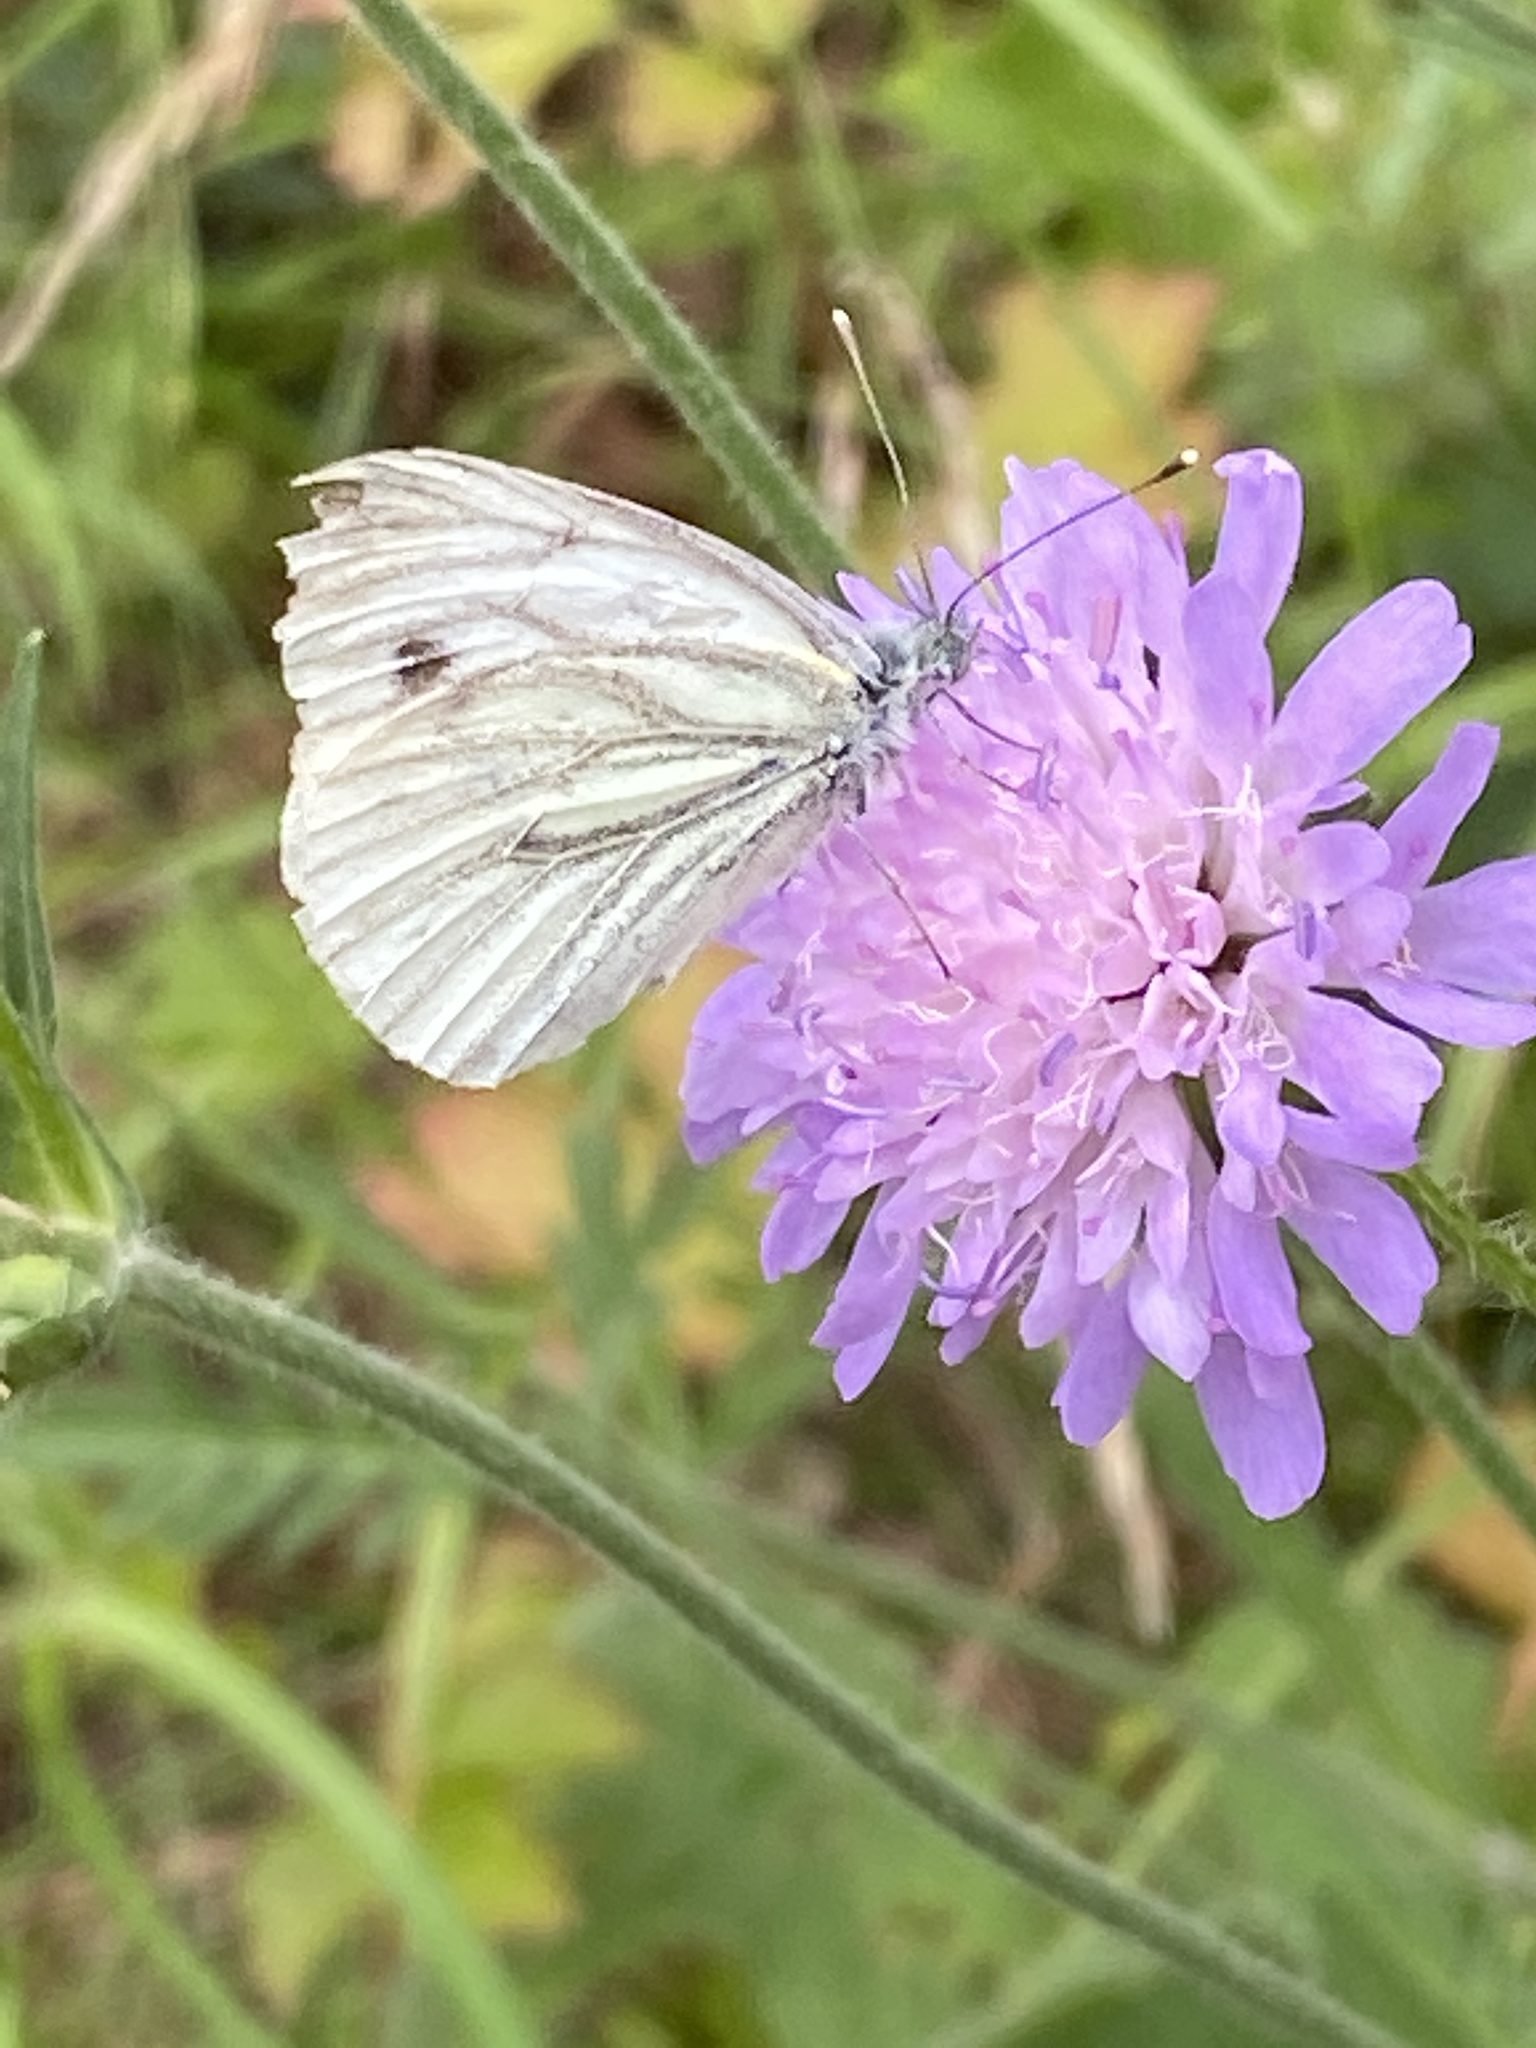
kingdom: Animalia
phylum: Arthropoda
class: Insecta
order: Lepidoptera
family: Pieridae
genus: Pieris
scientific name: Pieris napi
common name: Green-veined white
